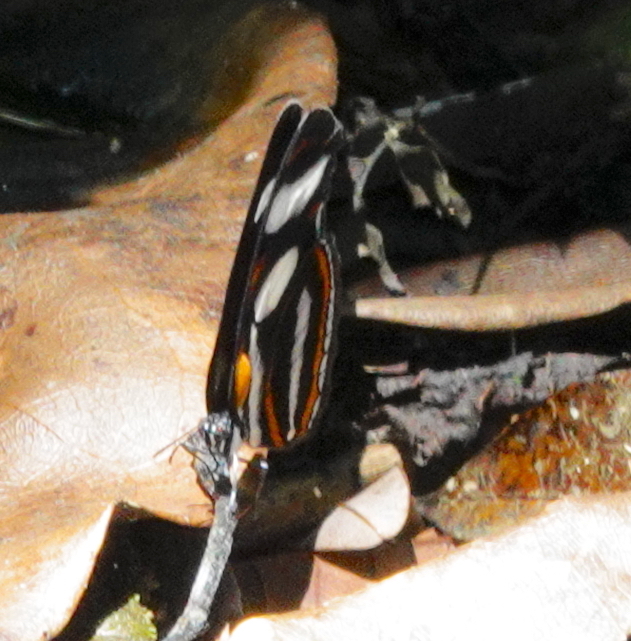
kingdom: Animalia
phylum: Arthropoda
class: Insecta
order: Lepidoptera
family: Nymphalidae
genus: Vila
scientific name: Vila emilia
